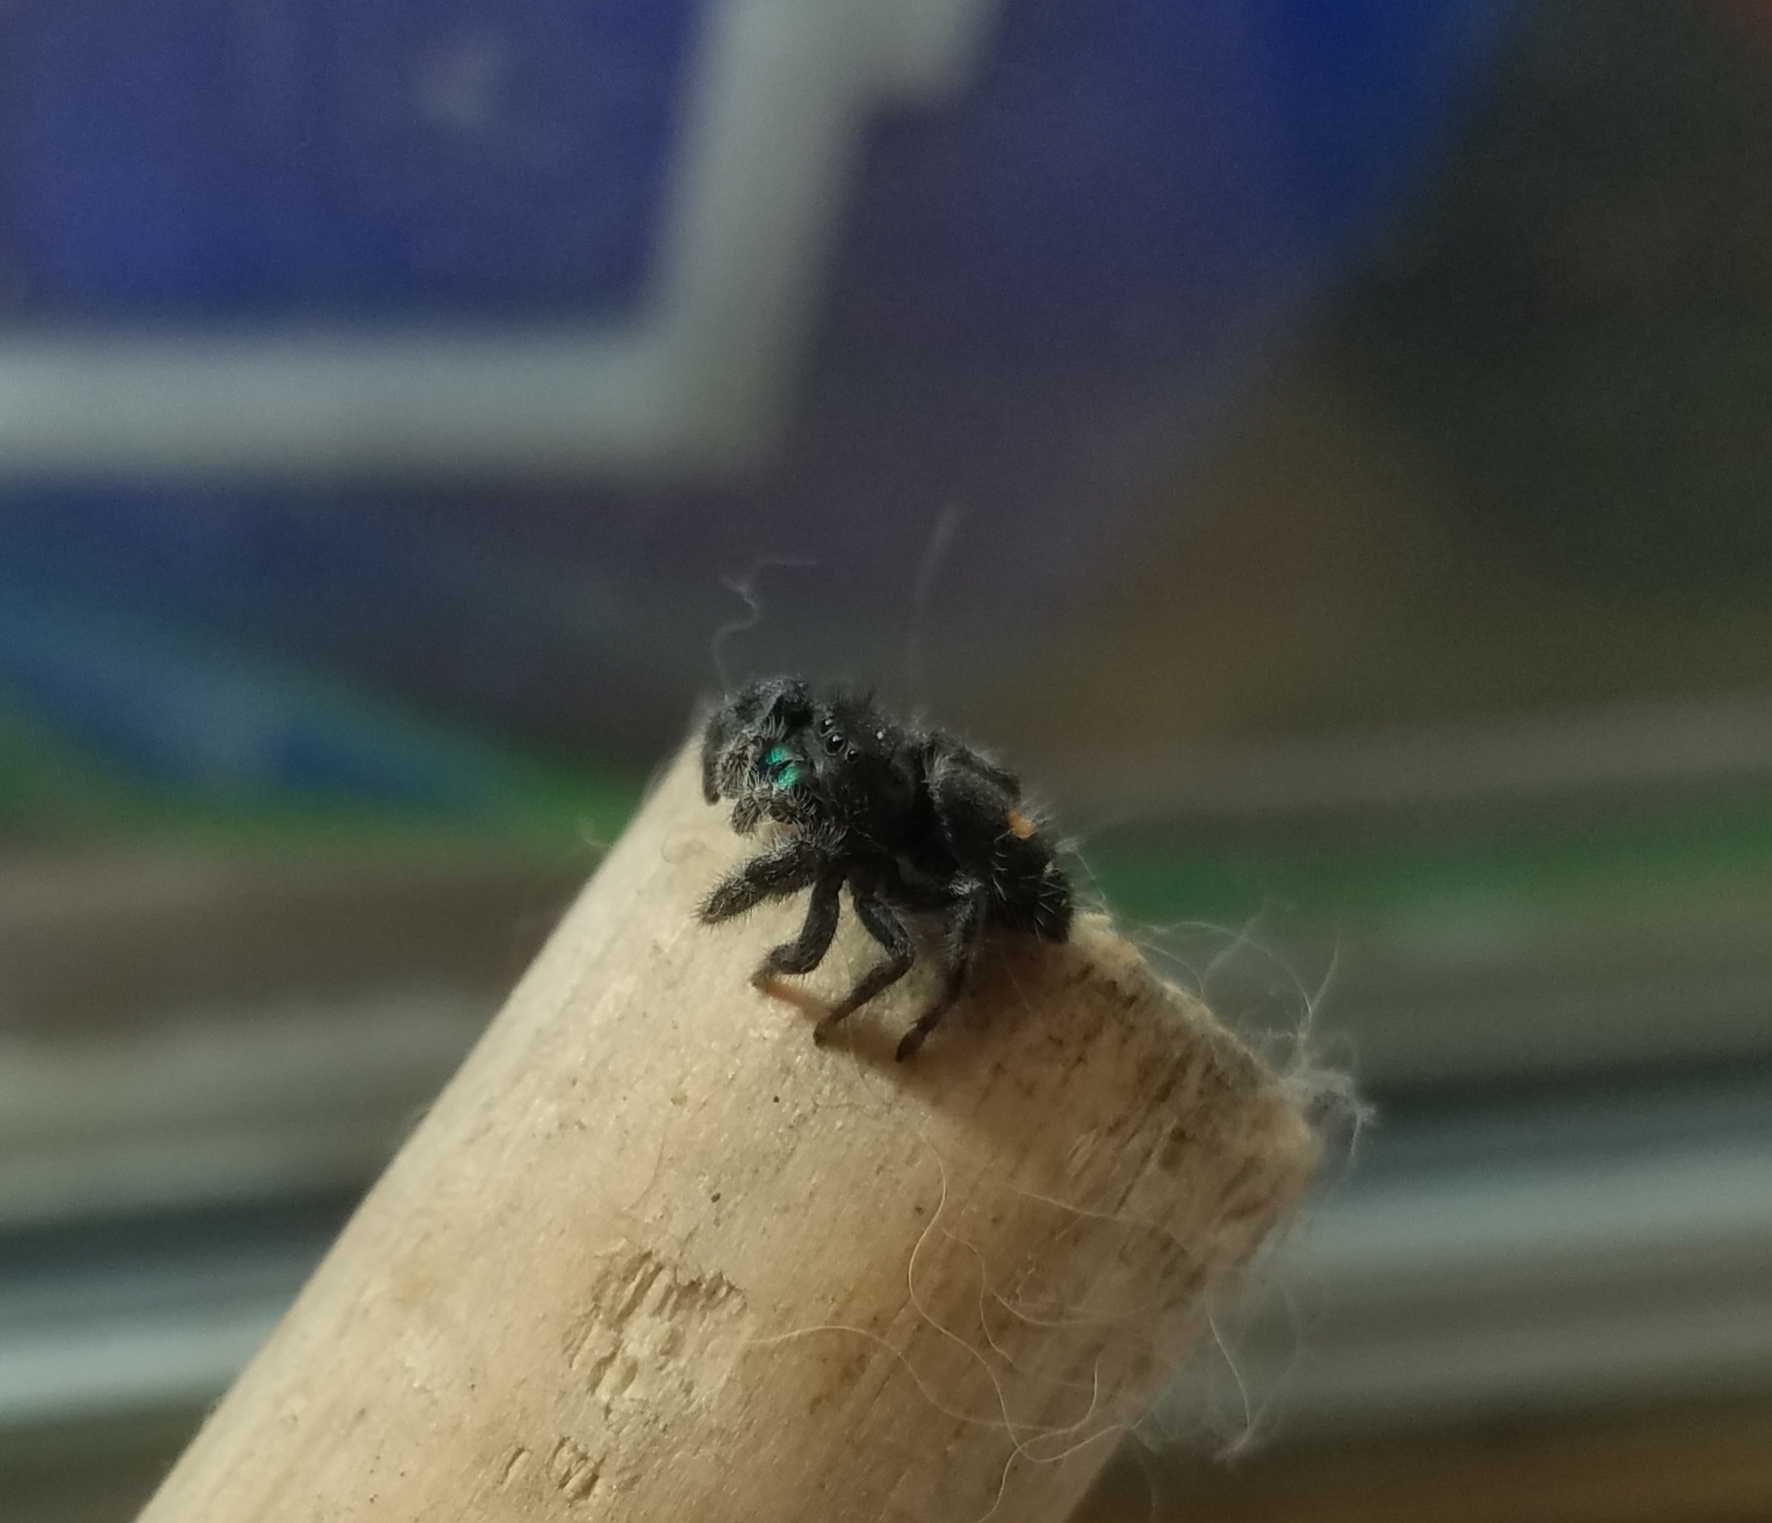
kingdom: Animalia
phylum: Arthropoda
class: Arachnida
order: Araneae
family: Salticidae
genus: Phidippus
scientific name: Phidippus audax
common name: Bold jumper
